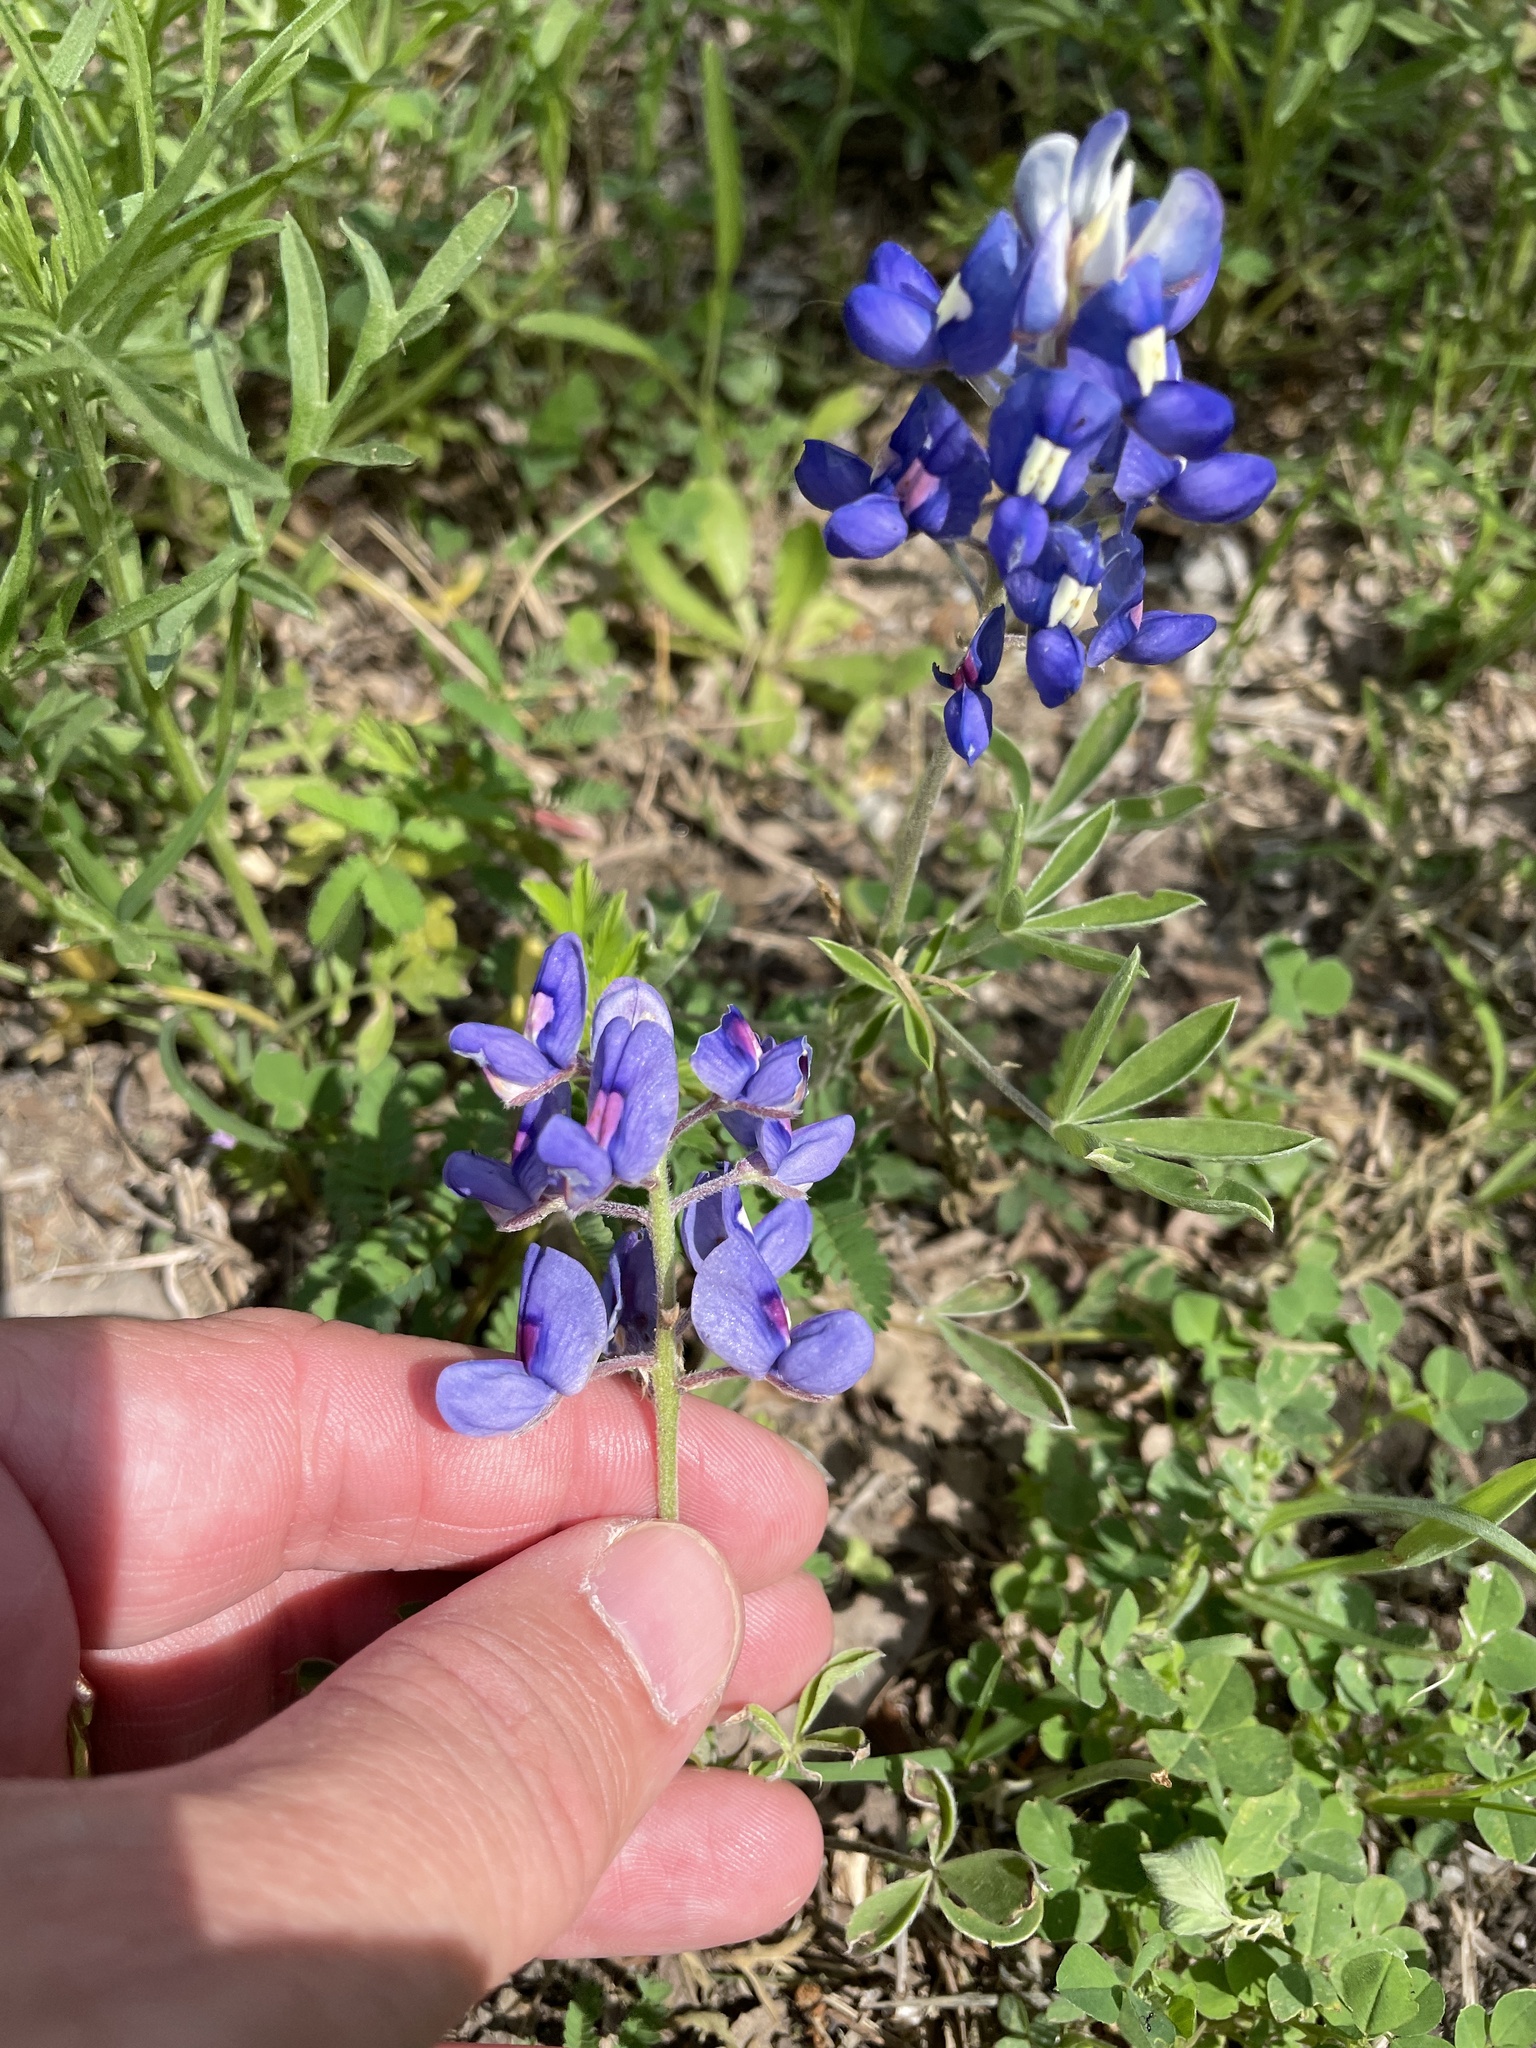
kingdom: Plantae
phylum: Tracheophyta
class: Magnoliopsida
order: Fabales
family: Fabaceae
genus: Lupinus
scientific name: Lupinus texensis
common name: Texas bluebonnet
